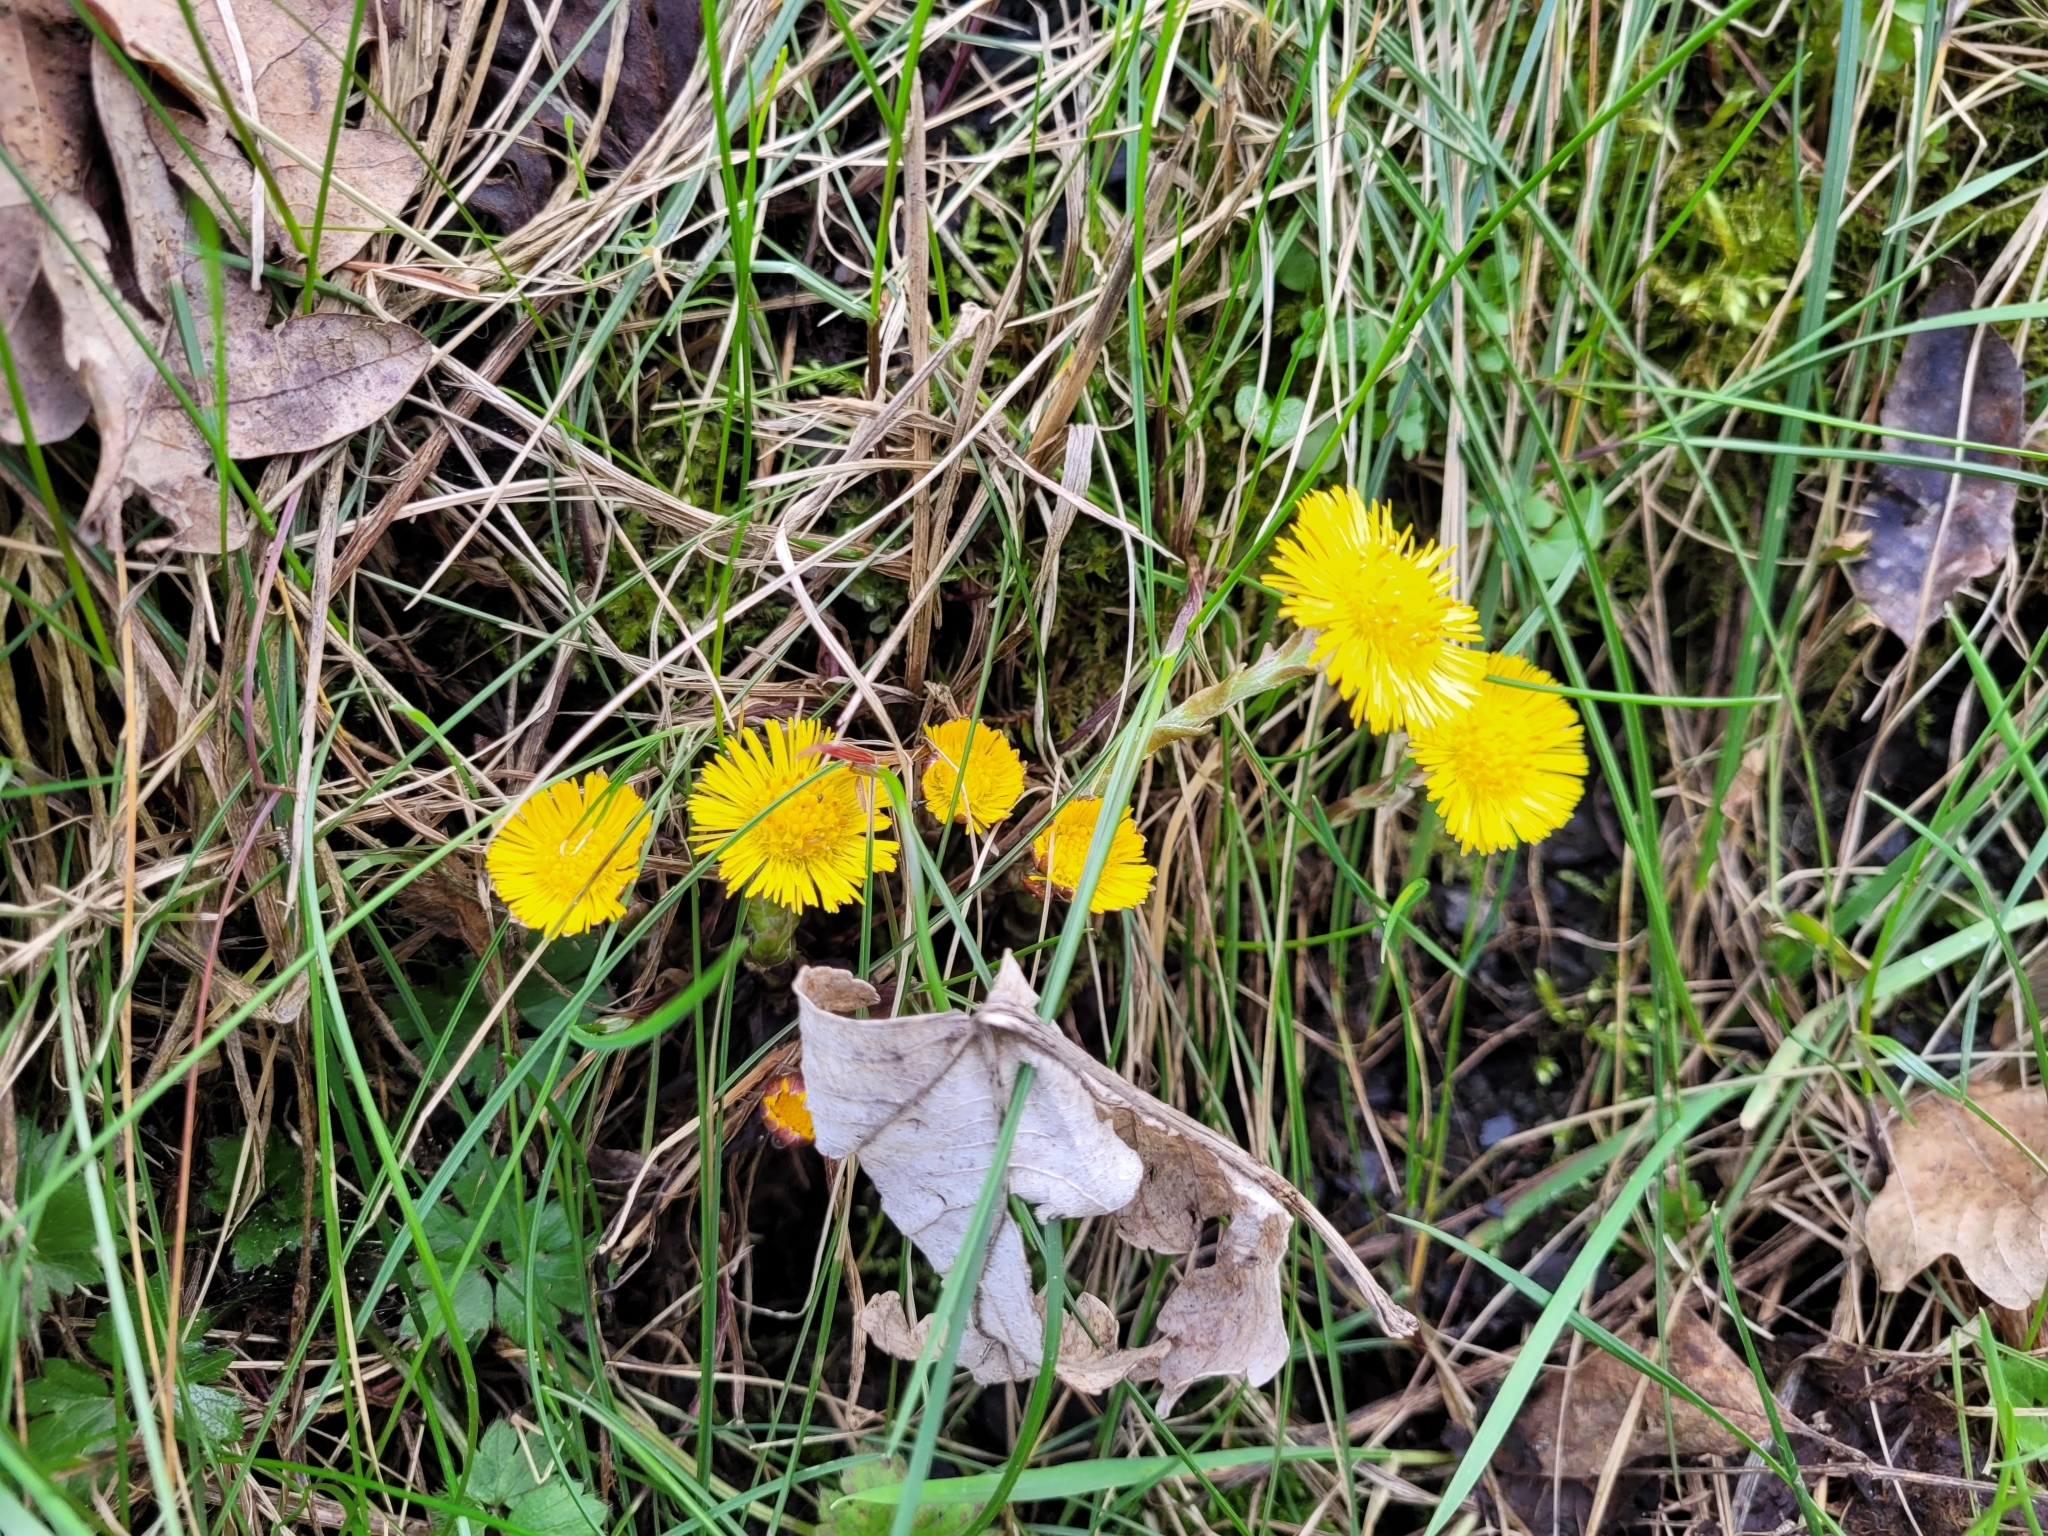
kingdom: Plantae
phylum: Tracheophyta
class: Magnoliopsida
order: Asterales
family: Asteraceae
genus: Tussilago
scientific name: Tussilago farfara
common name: Coltsfoot
